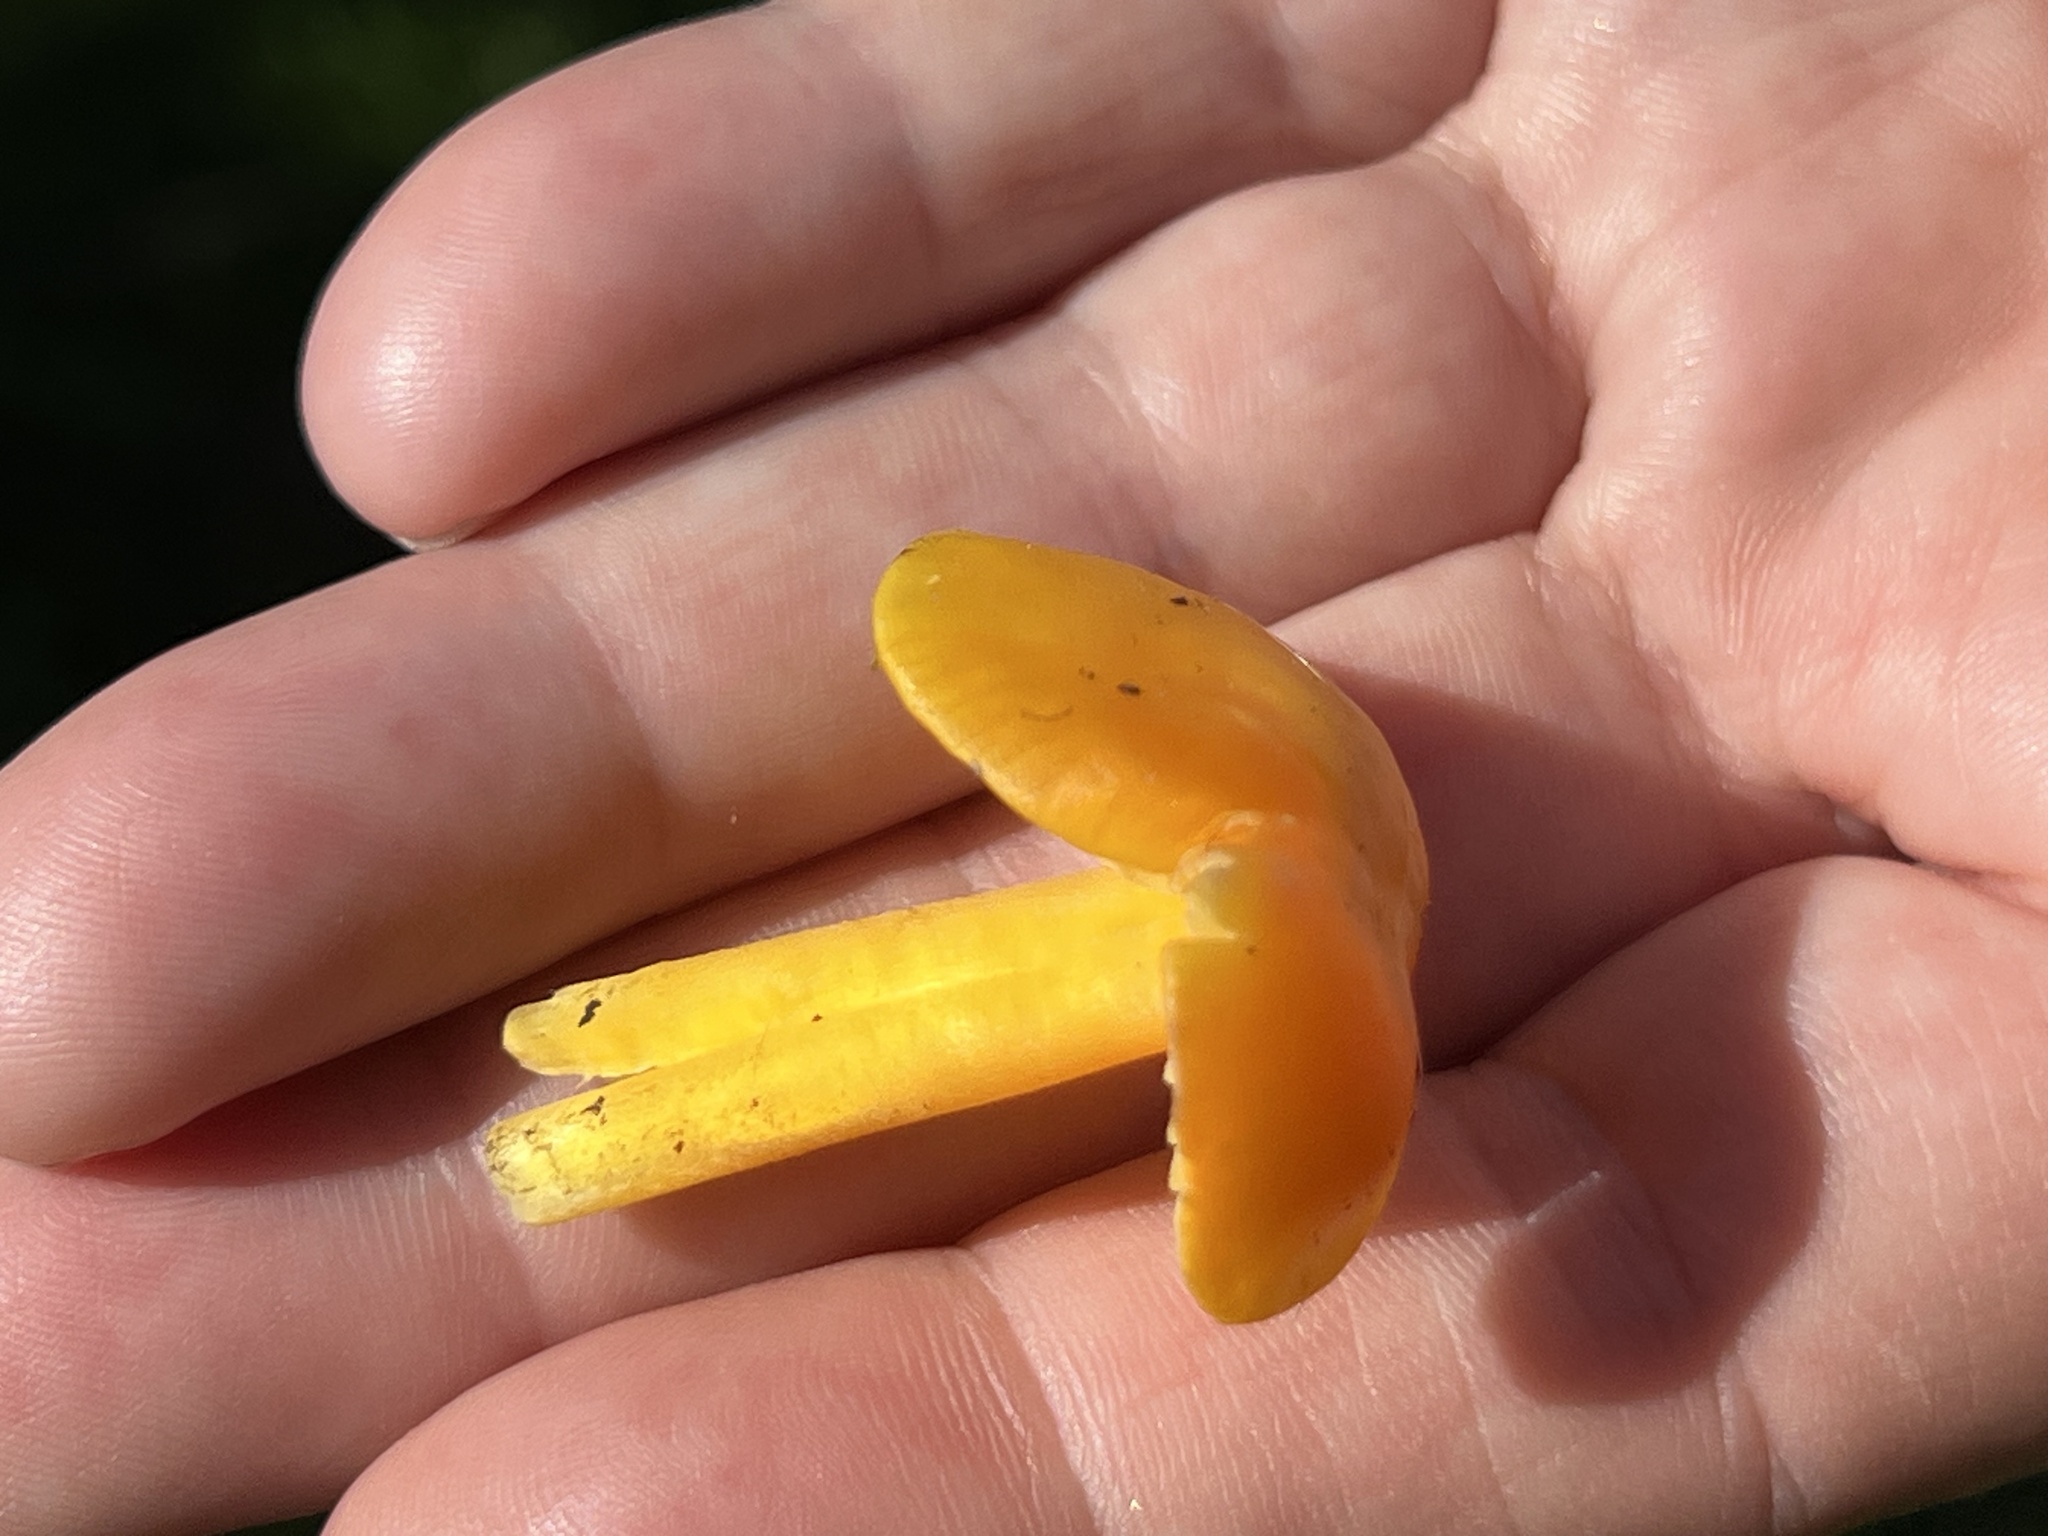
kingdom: Fungi
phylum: Basidiomycota
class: Agaricomycetes
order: Agaricales
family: Hygrophoraceae
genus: Hygrocybe
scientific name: Hygrocybe chlorophana
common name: Golden waxcap
